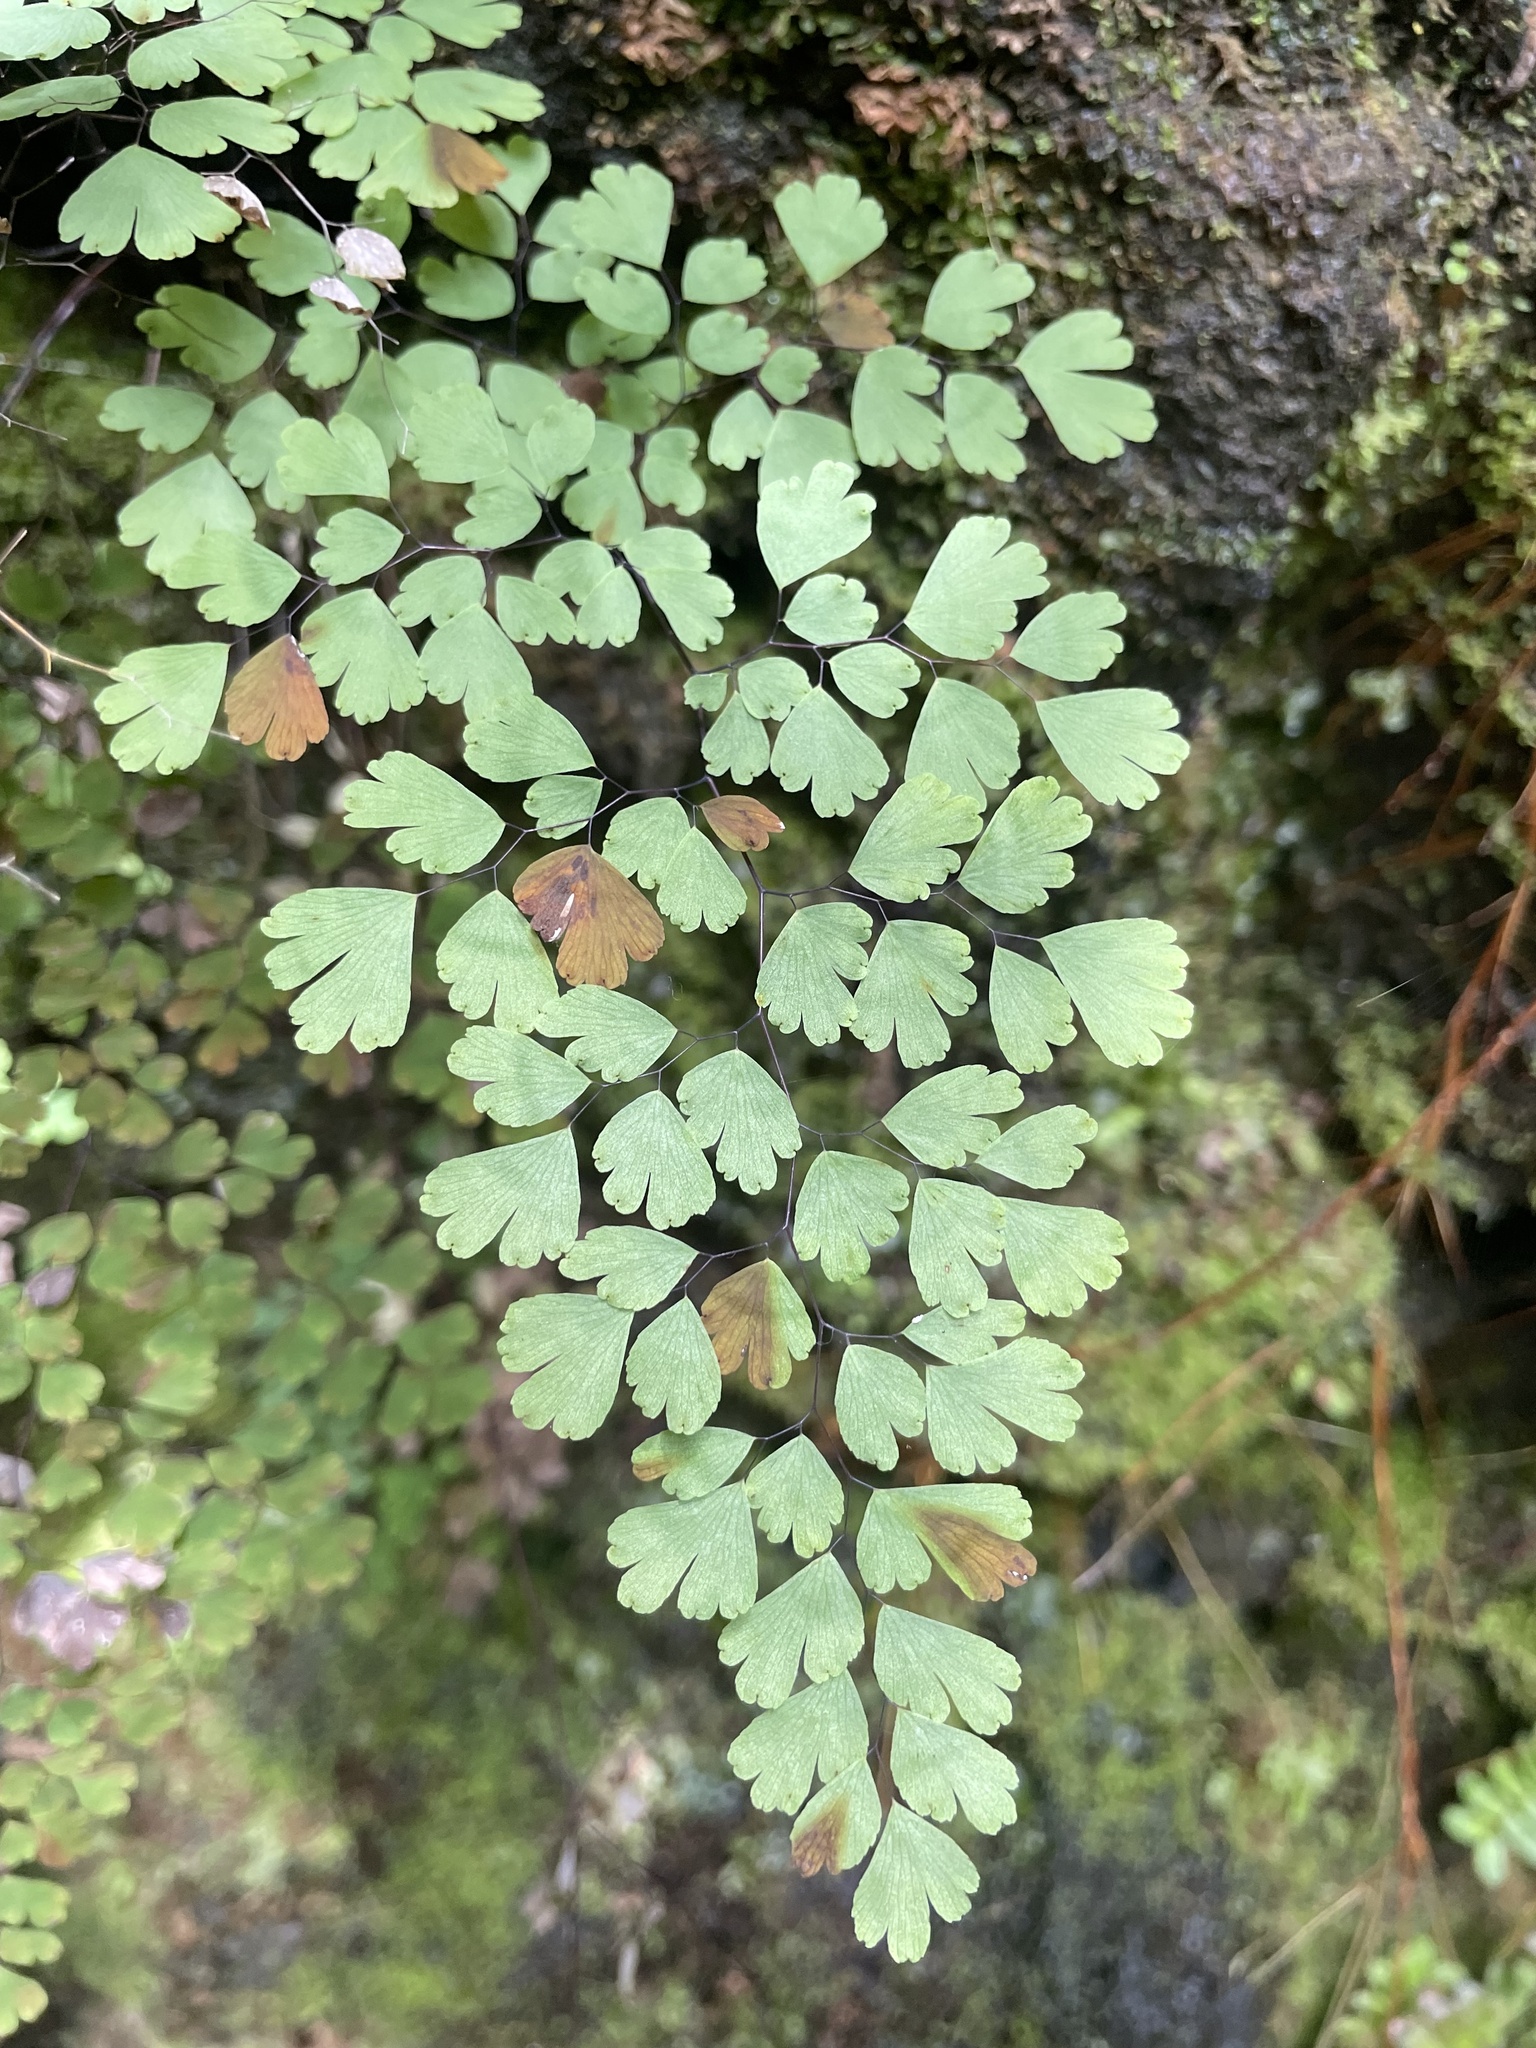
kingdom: Plantae
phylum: Tracheophyta
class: Polypodiopsida
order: Polypodiales
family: Pteridaceae
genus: Adiantum
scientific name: Adiantum raddianum
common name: Delta maidenhair fern
